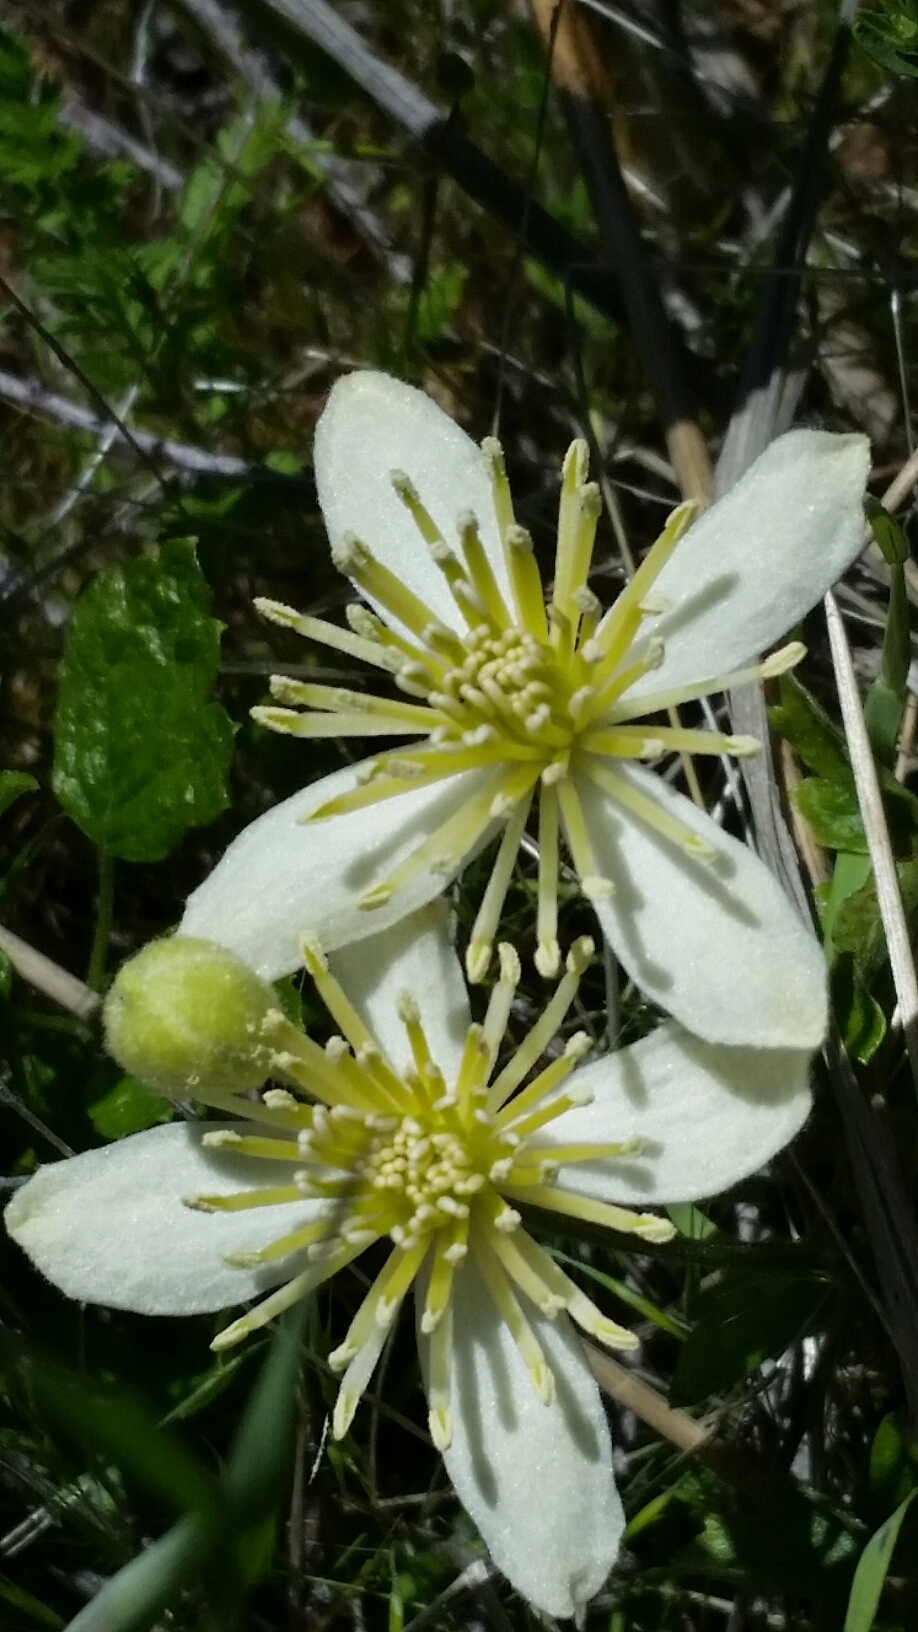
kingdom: Plantae
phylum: Tracheophyta
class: Magnoliopsida
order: Ranunculales
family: Ranunculaceae
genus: Clematis
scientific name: Clematis lasiantha
